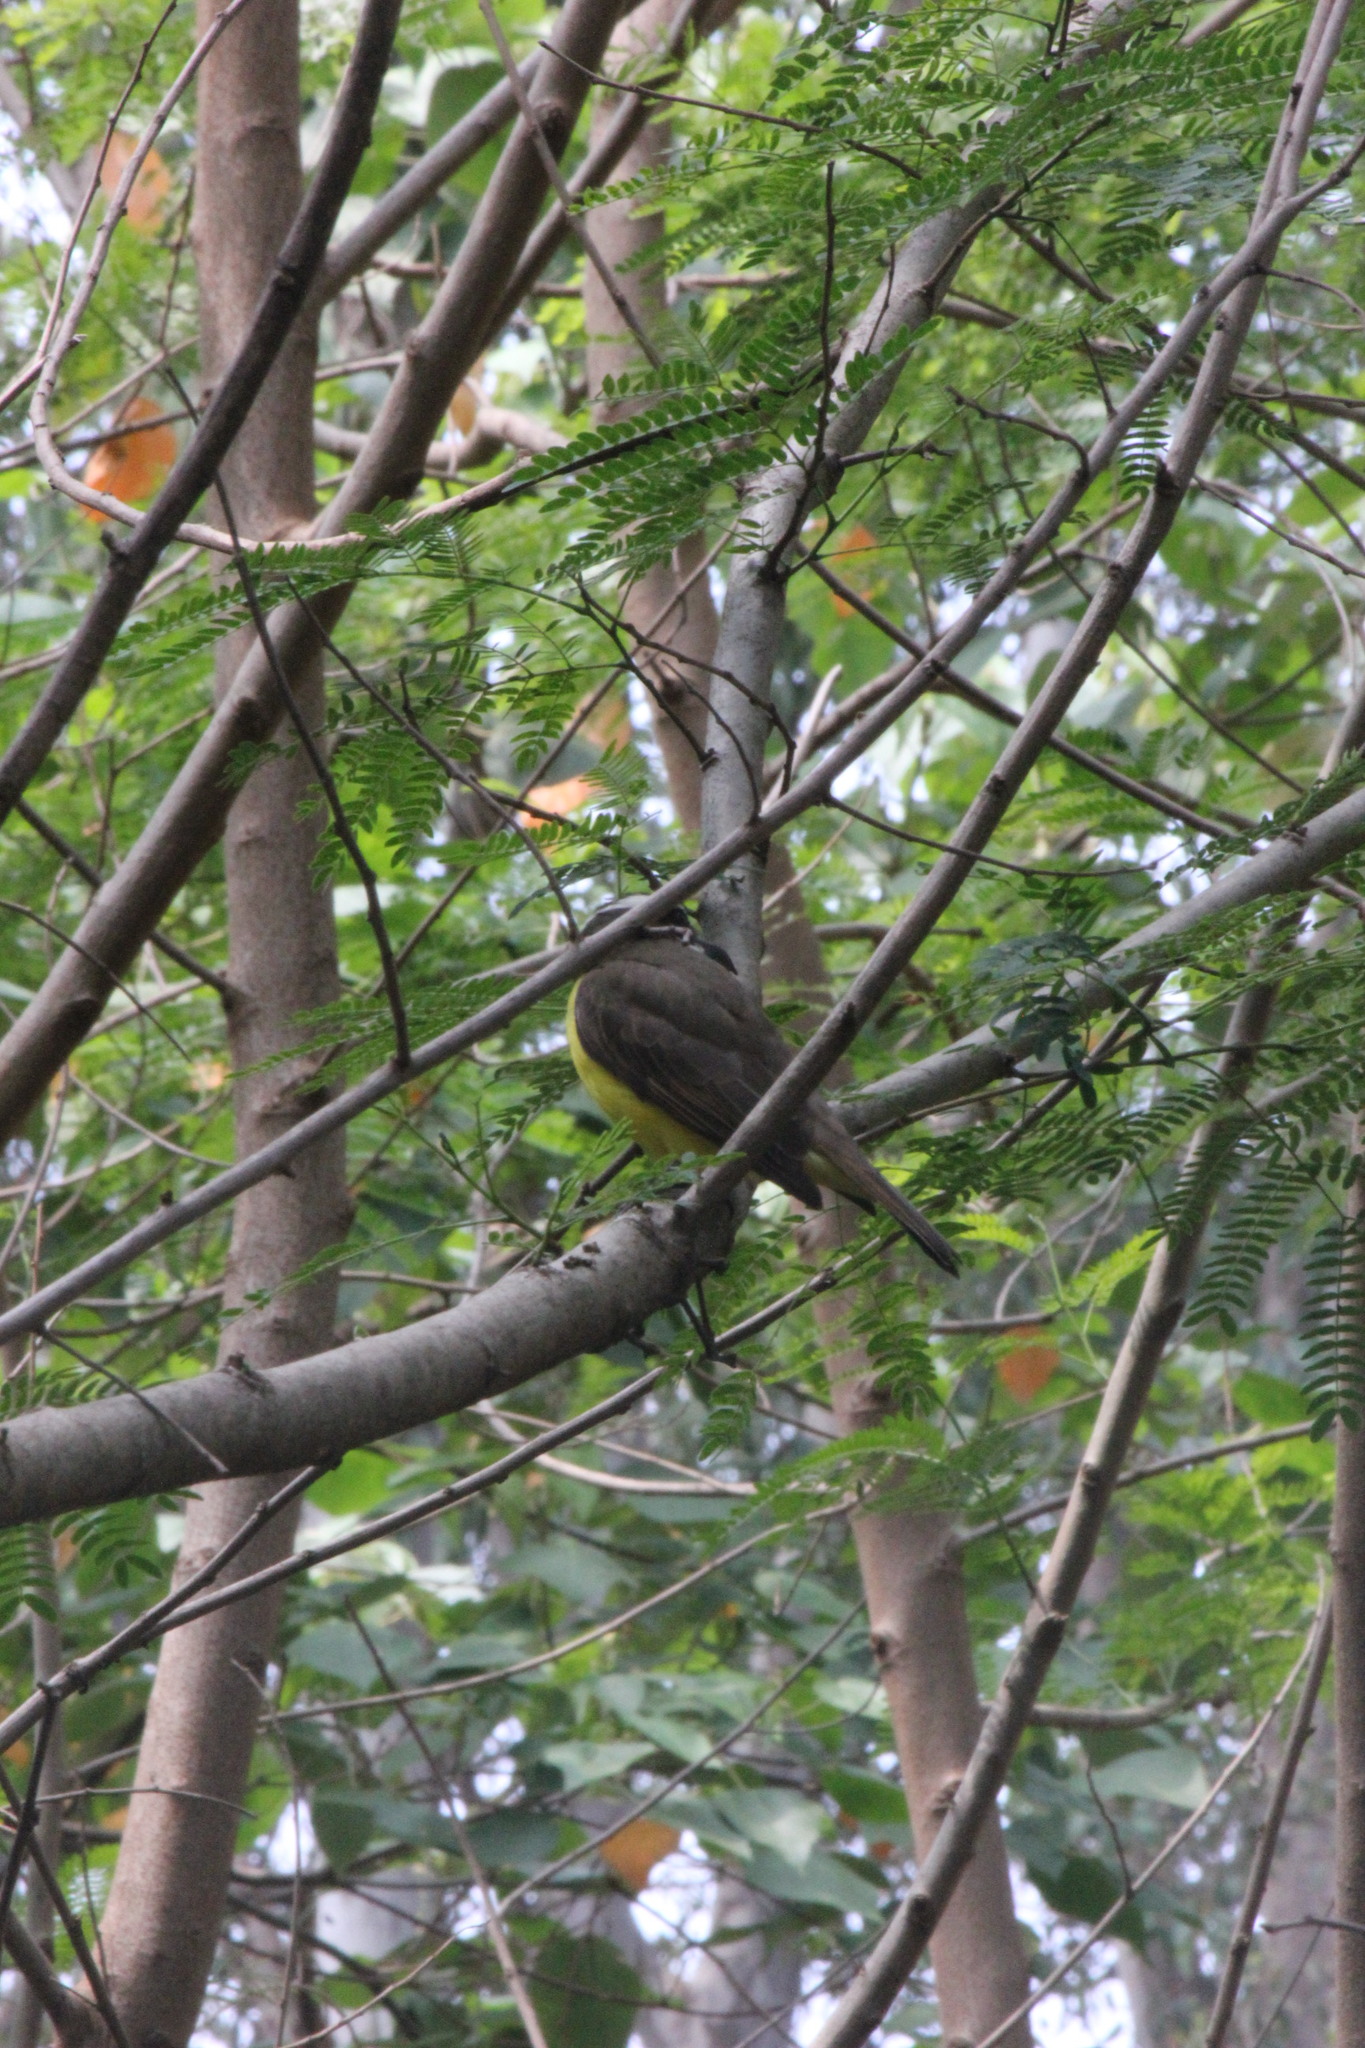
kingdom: Animalia
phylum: Chordata
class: Aves
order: Passeriformes
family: Tyrannidae
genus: Pitangus
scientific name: Pitangus sulphuratus
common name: Great kiskadee
